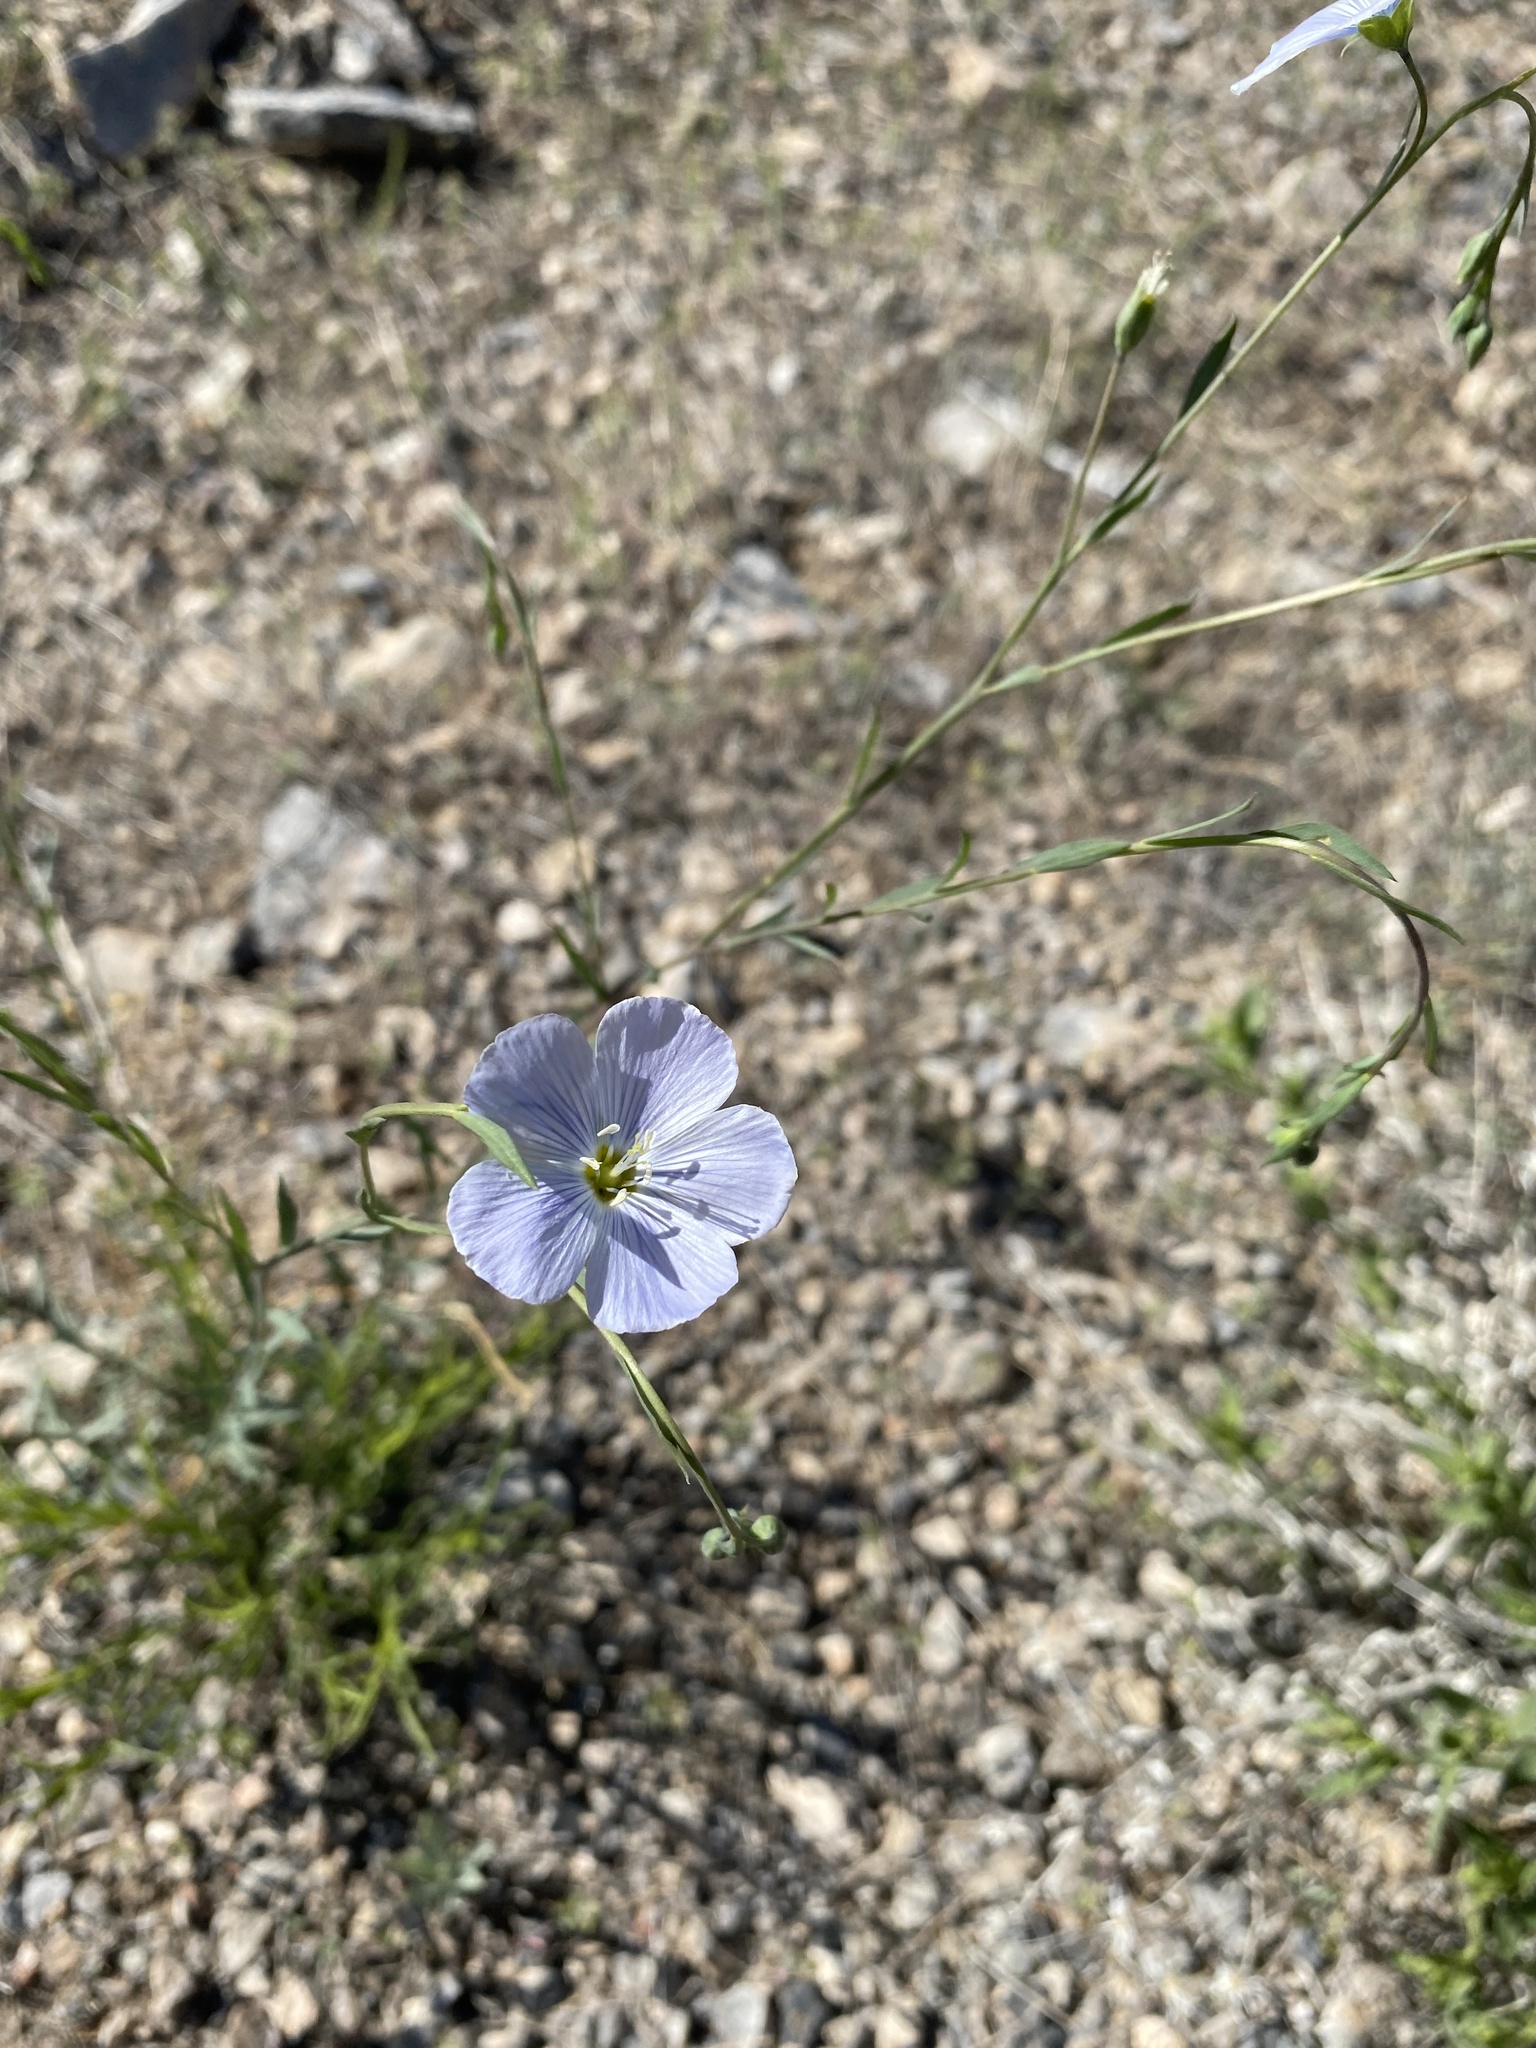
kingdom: Plantae
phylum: Tracheophyta
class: Magnoliopsida
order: Malpighiales
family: Linaceae
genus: Linum
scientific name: Linum lewisii
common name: Prairie flax
